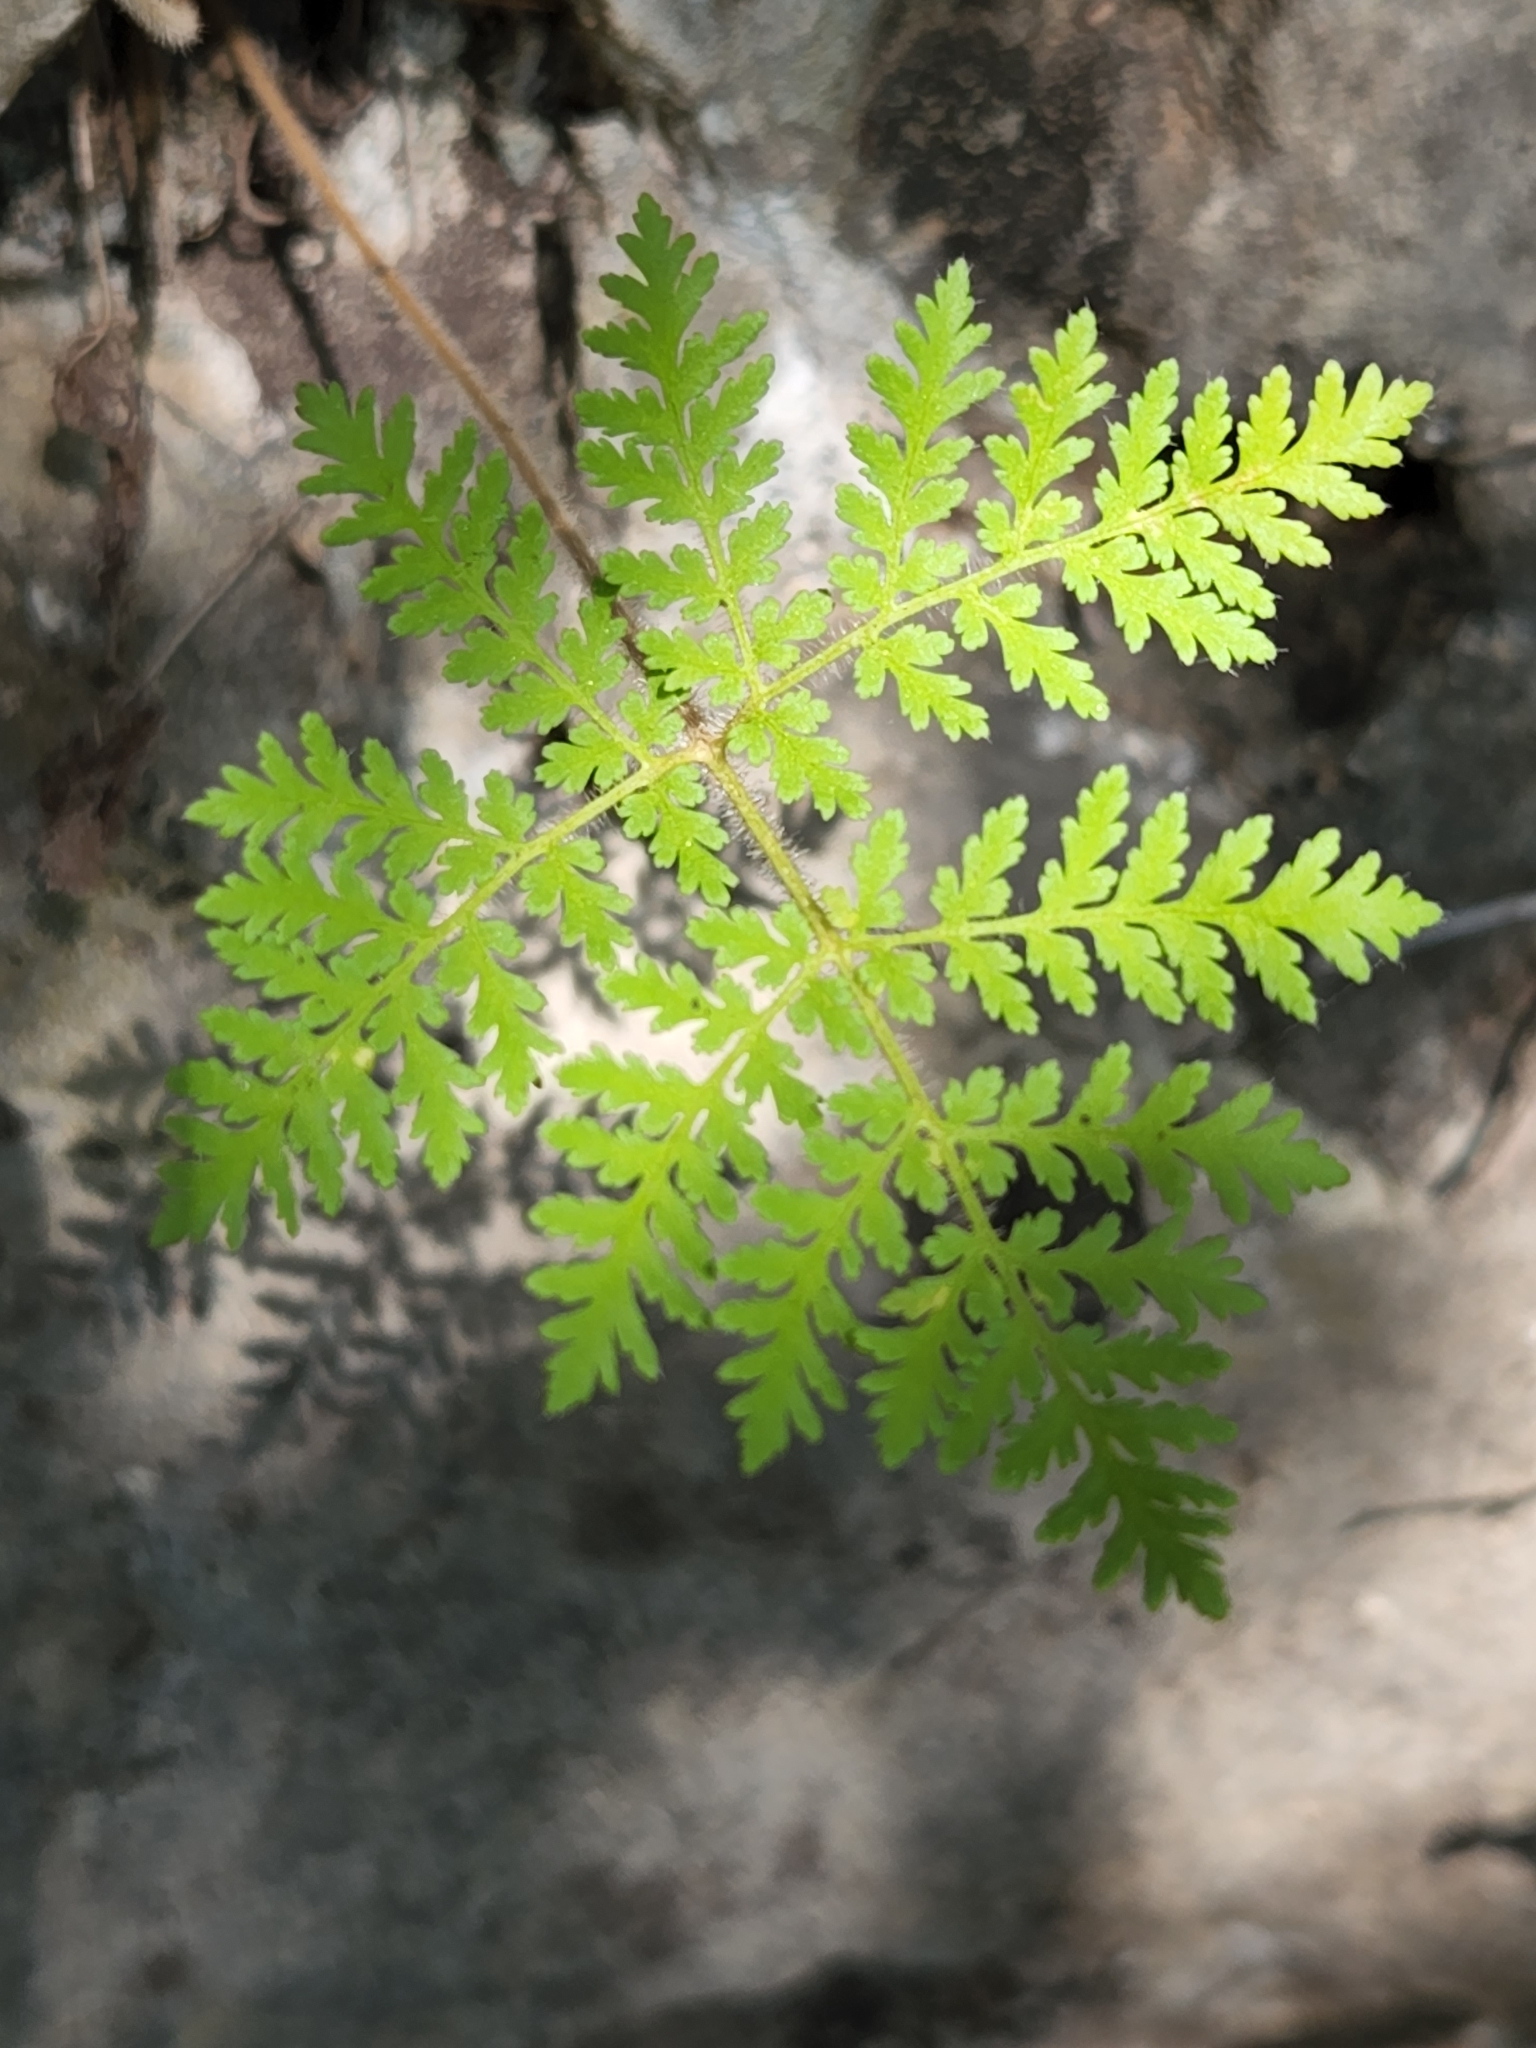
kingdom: Plantae
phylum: Tracheophyta
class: Polypodiopsida
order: Polypodiales
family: Pteridaceae
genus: Cheilanthes
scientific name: Cheilanthes leucopoda
